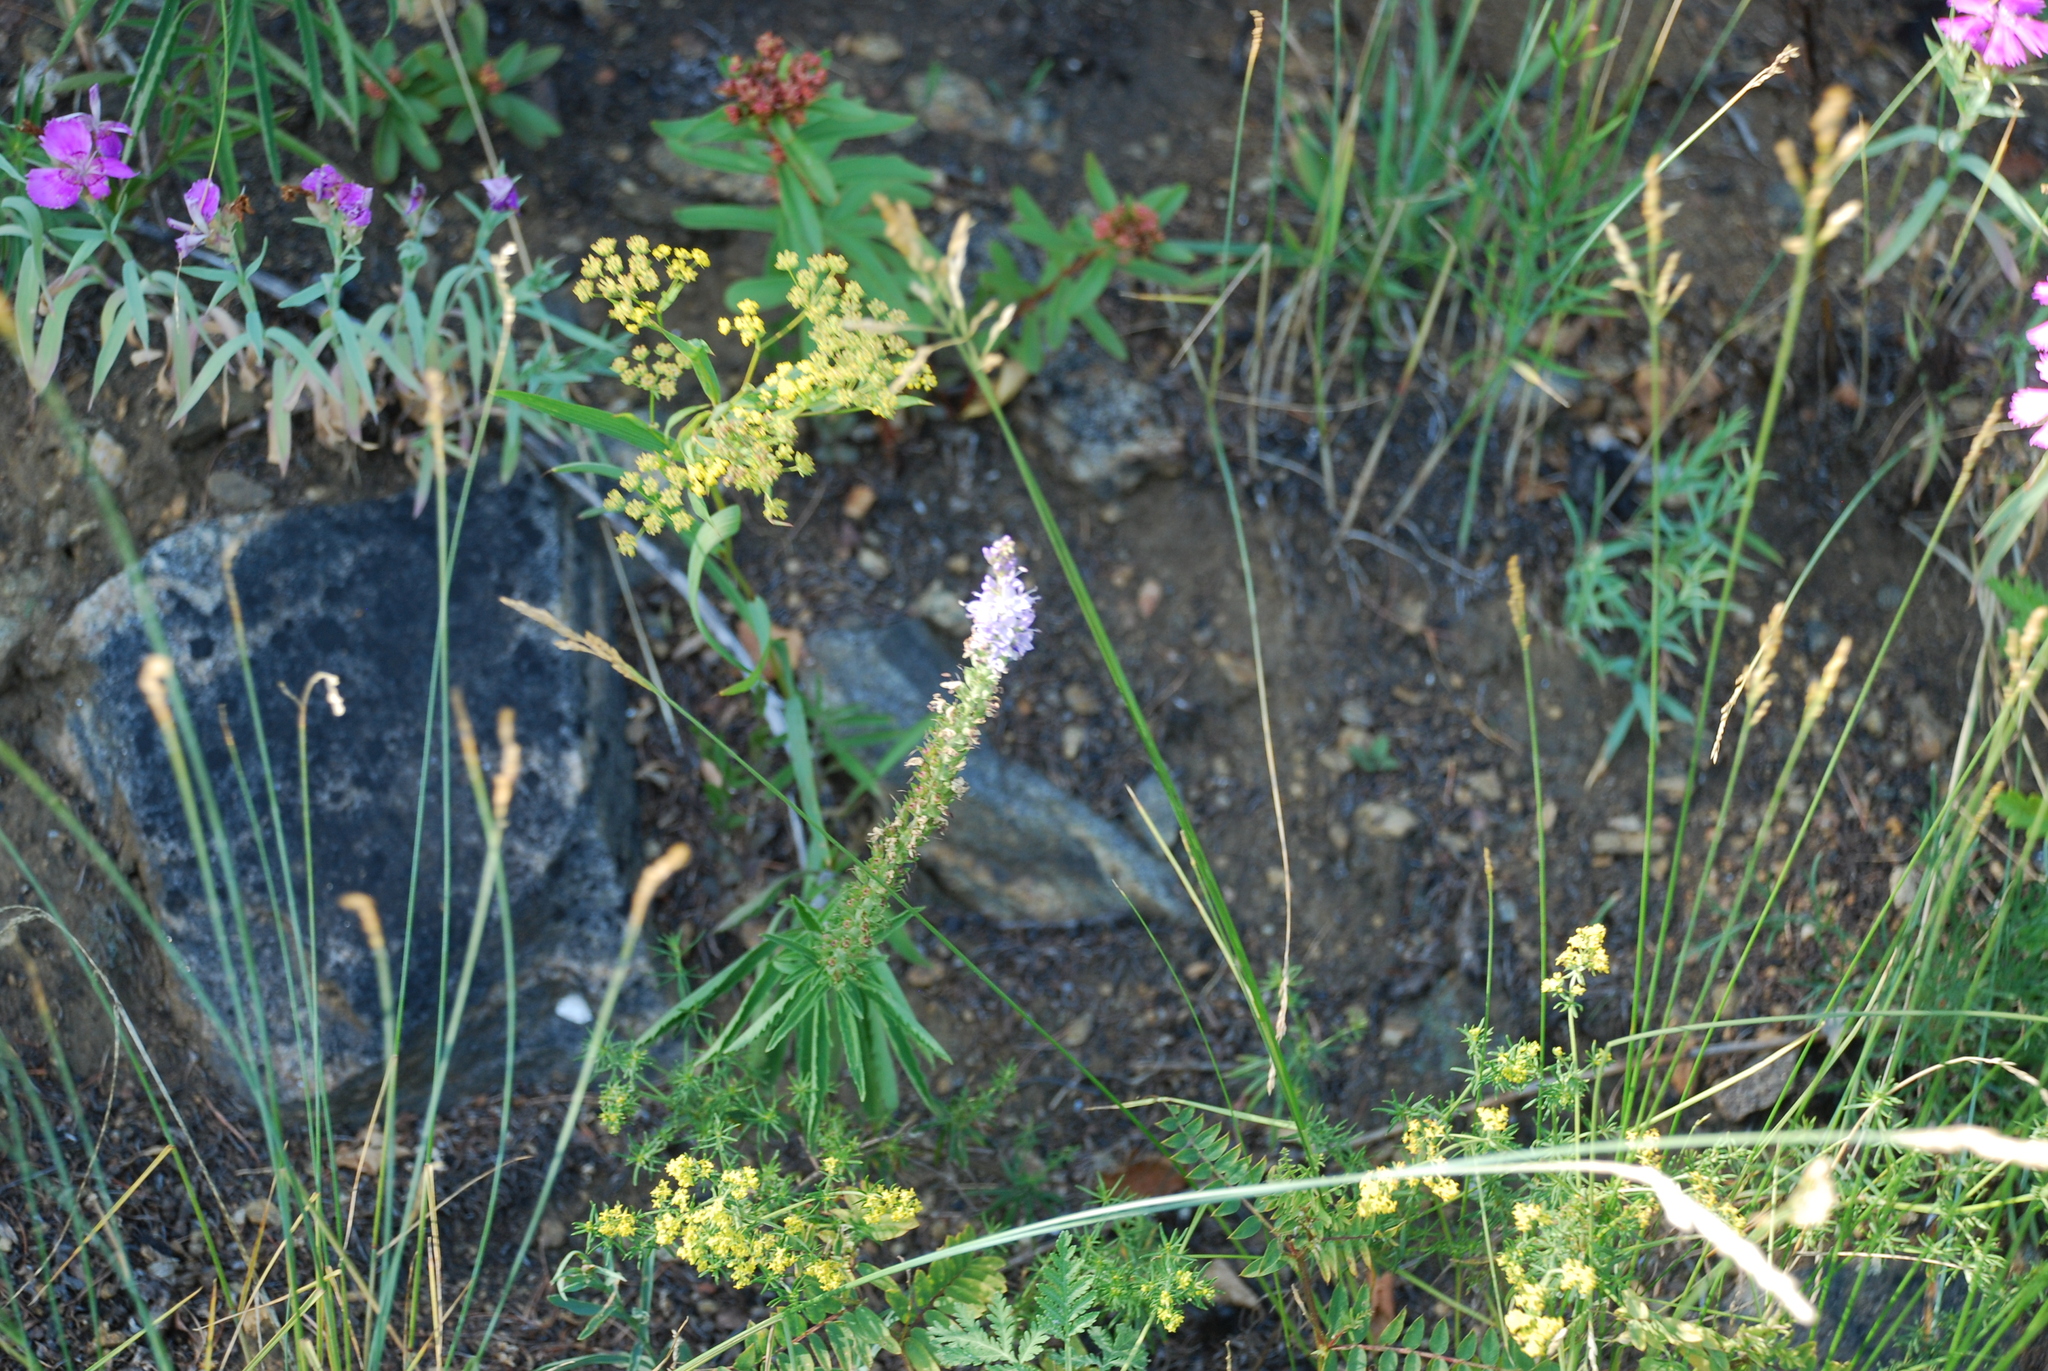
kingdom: Plantae
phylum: Tracheophyta
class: Magnoliopsida
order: Lamiales
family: Plantaginaceae
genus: Veronica
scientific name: Veronica linariifolia
